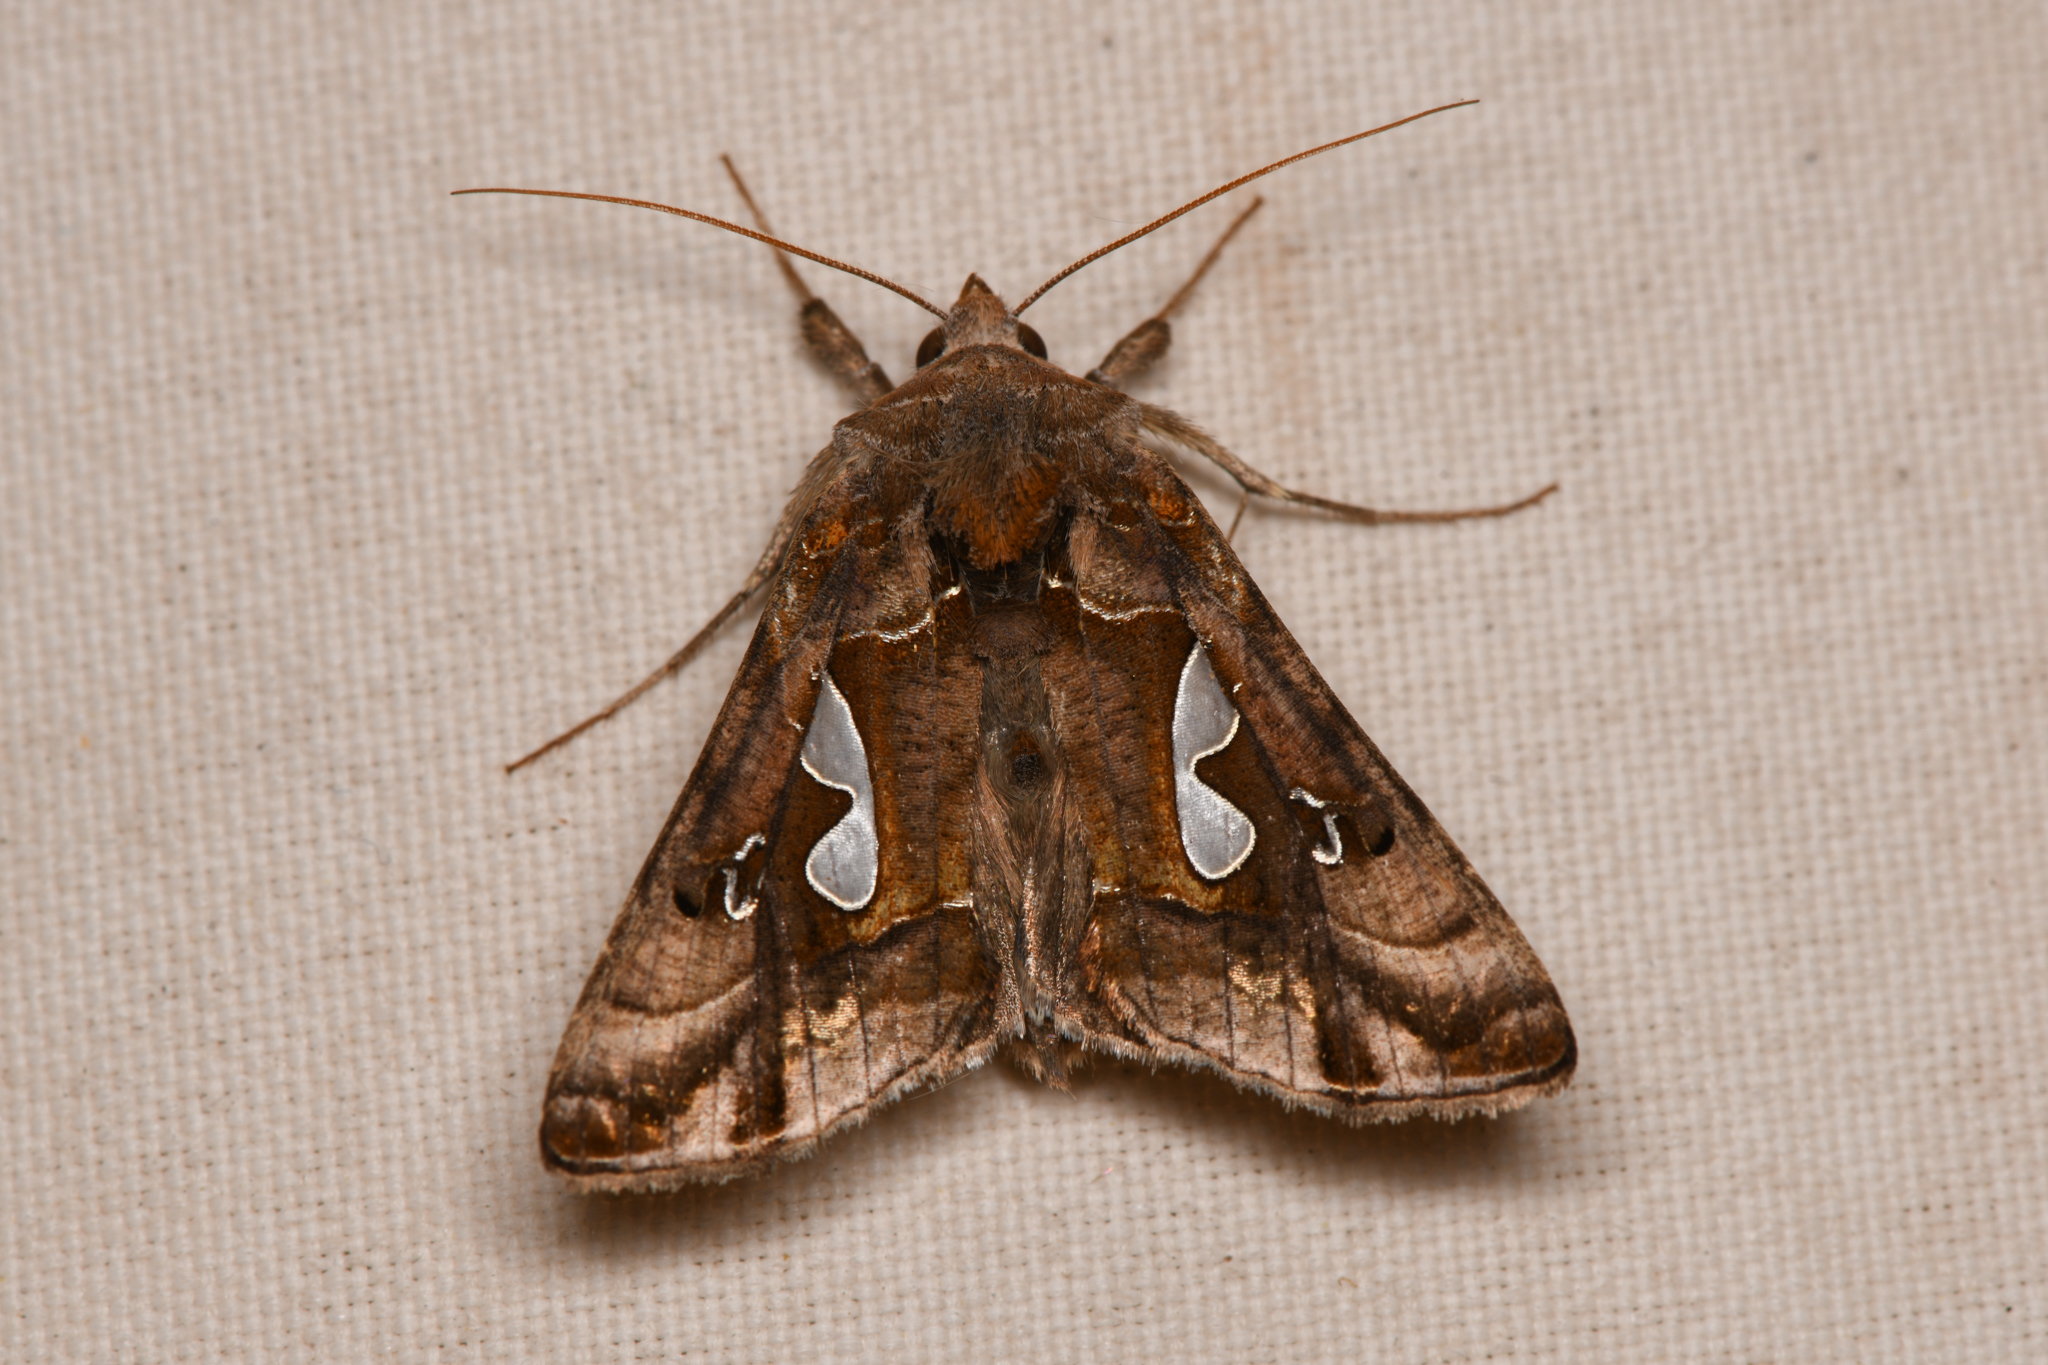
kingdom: Animalia
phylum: Arthropoda
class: Insecta
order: Lepidoptera
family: Noctuidae
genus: Megalographa
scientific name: Megalographa biloba
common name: Cutworm
